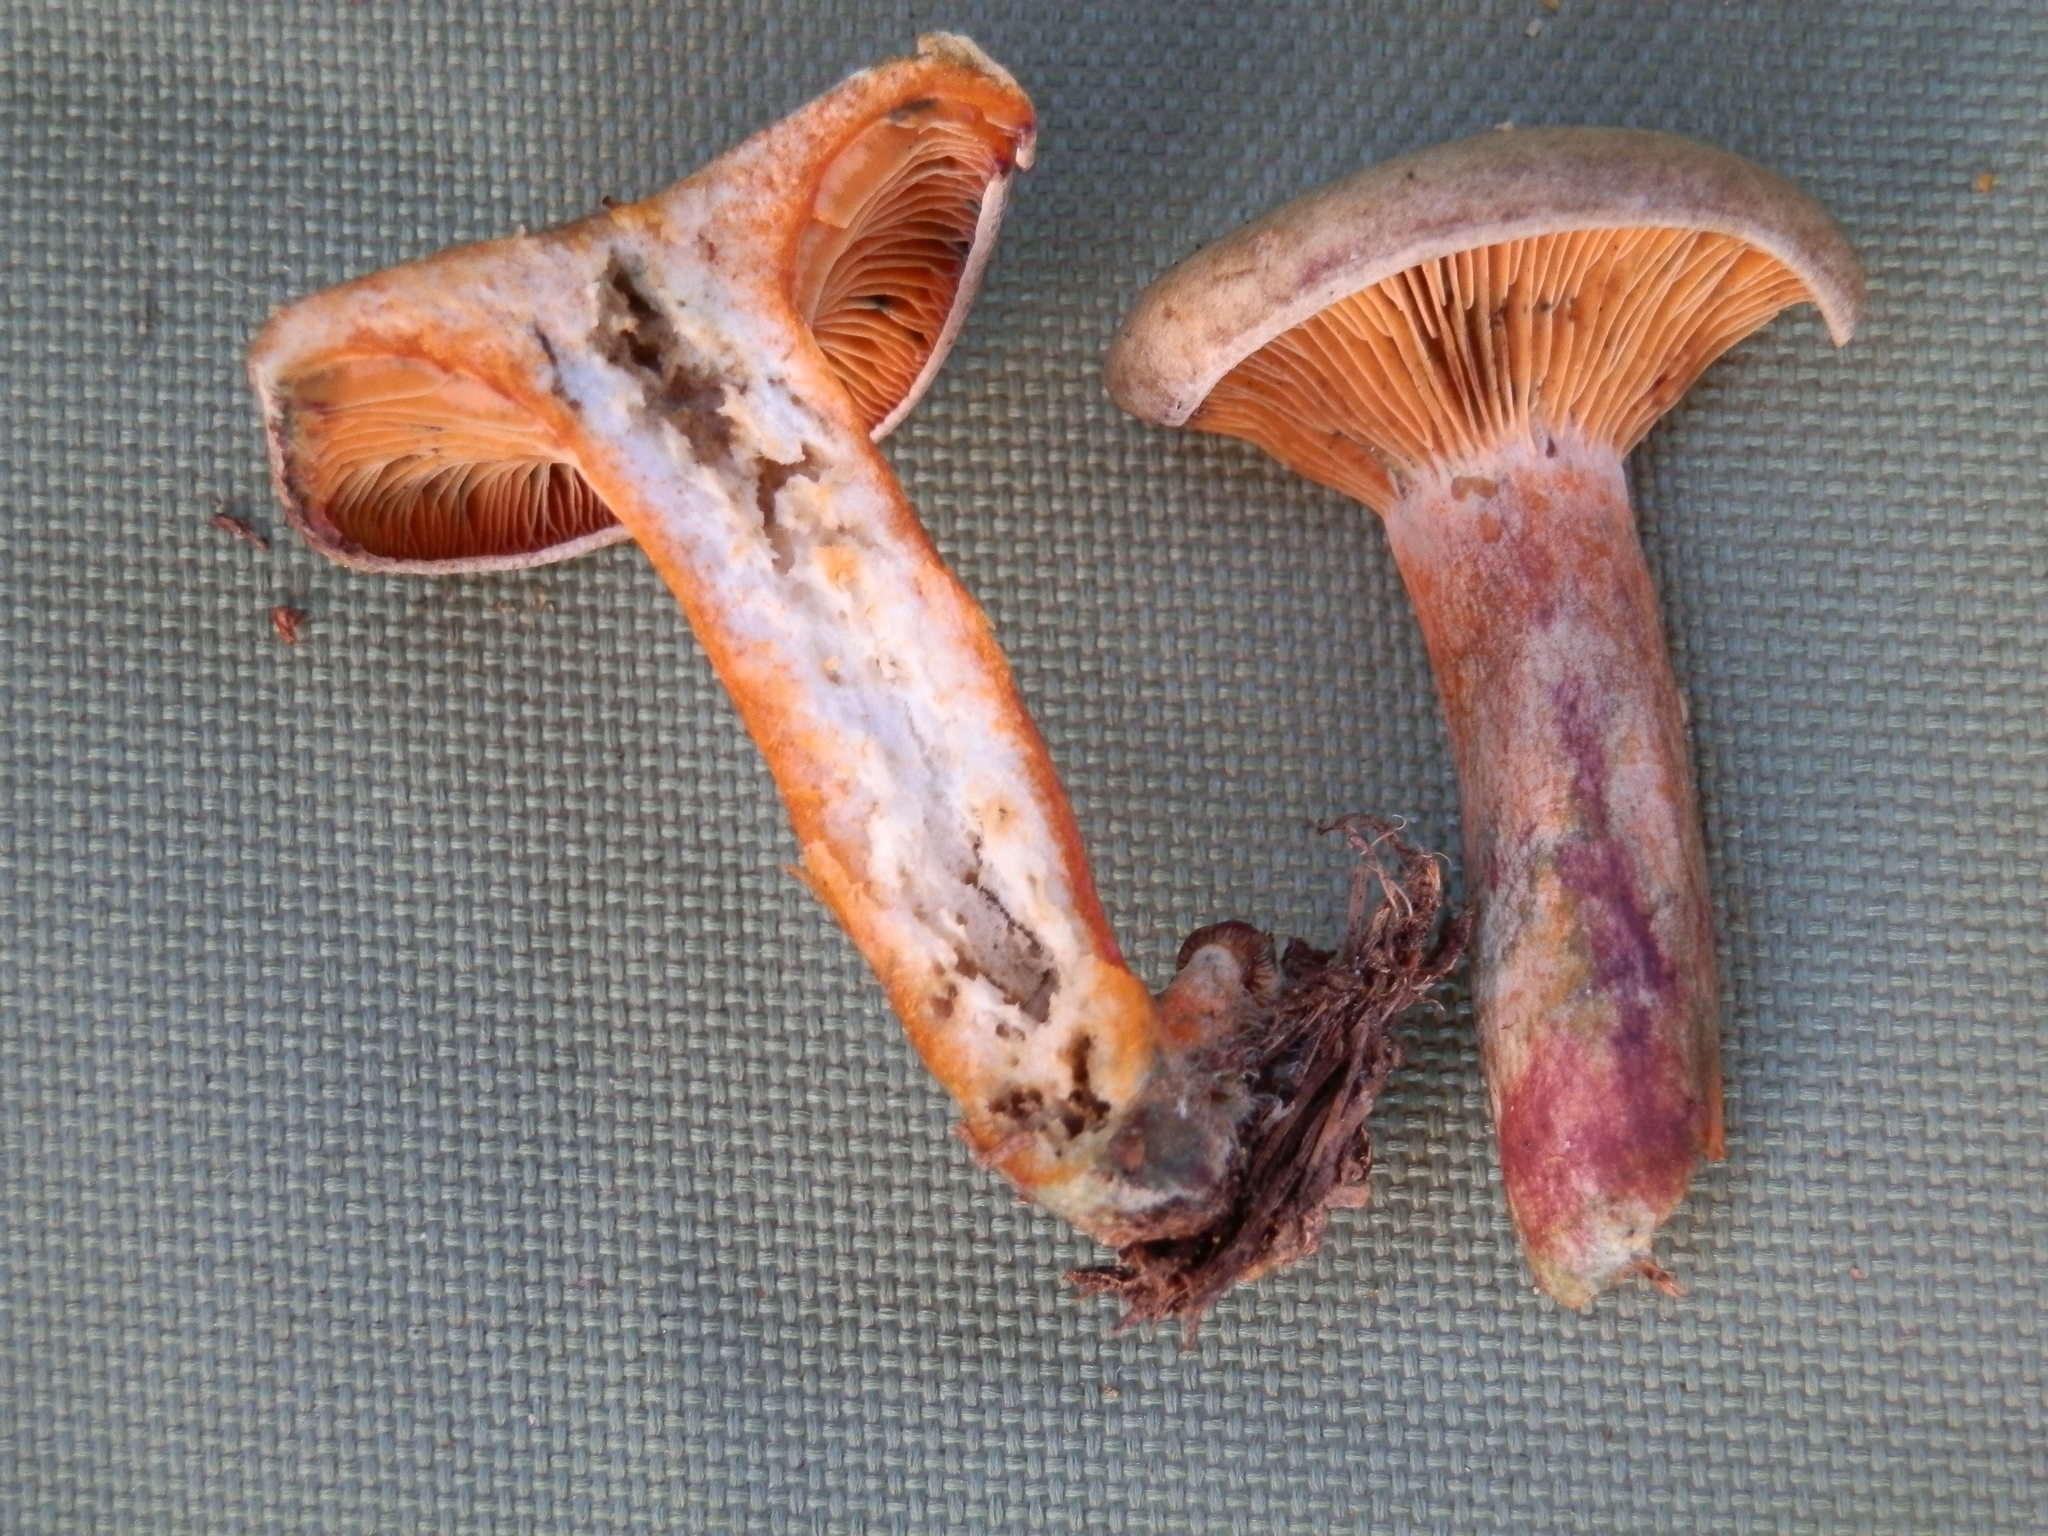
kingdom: Fungi
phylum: Basidiomycota
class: Agaricomycetes
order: Russulales
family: Russulaceae
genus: Lactarius
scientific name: Lactarius deterrimus
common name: False saffron milkcap
